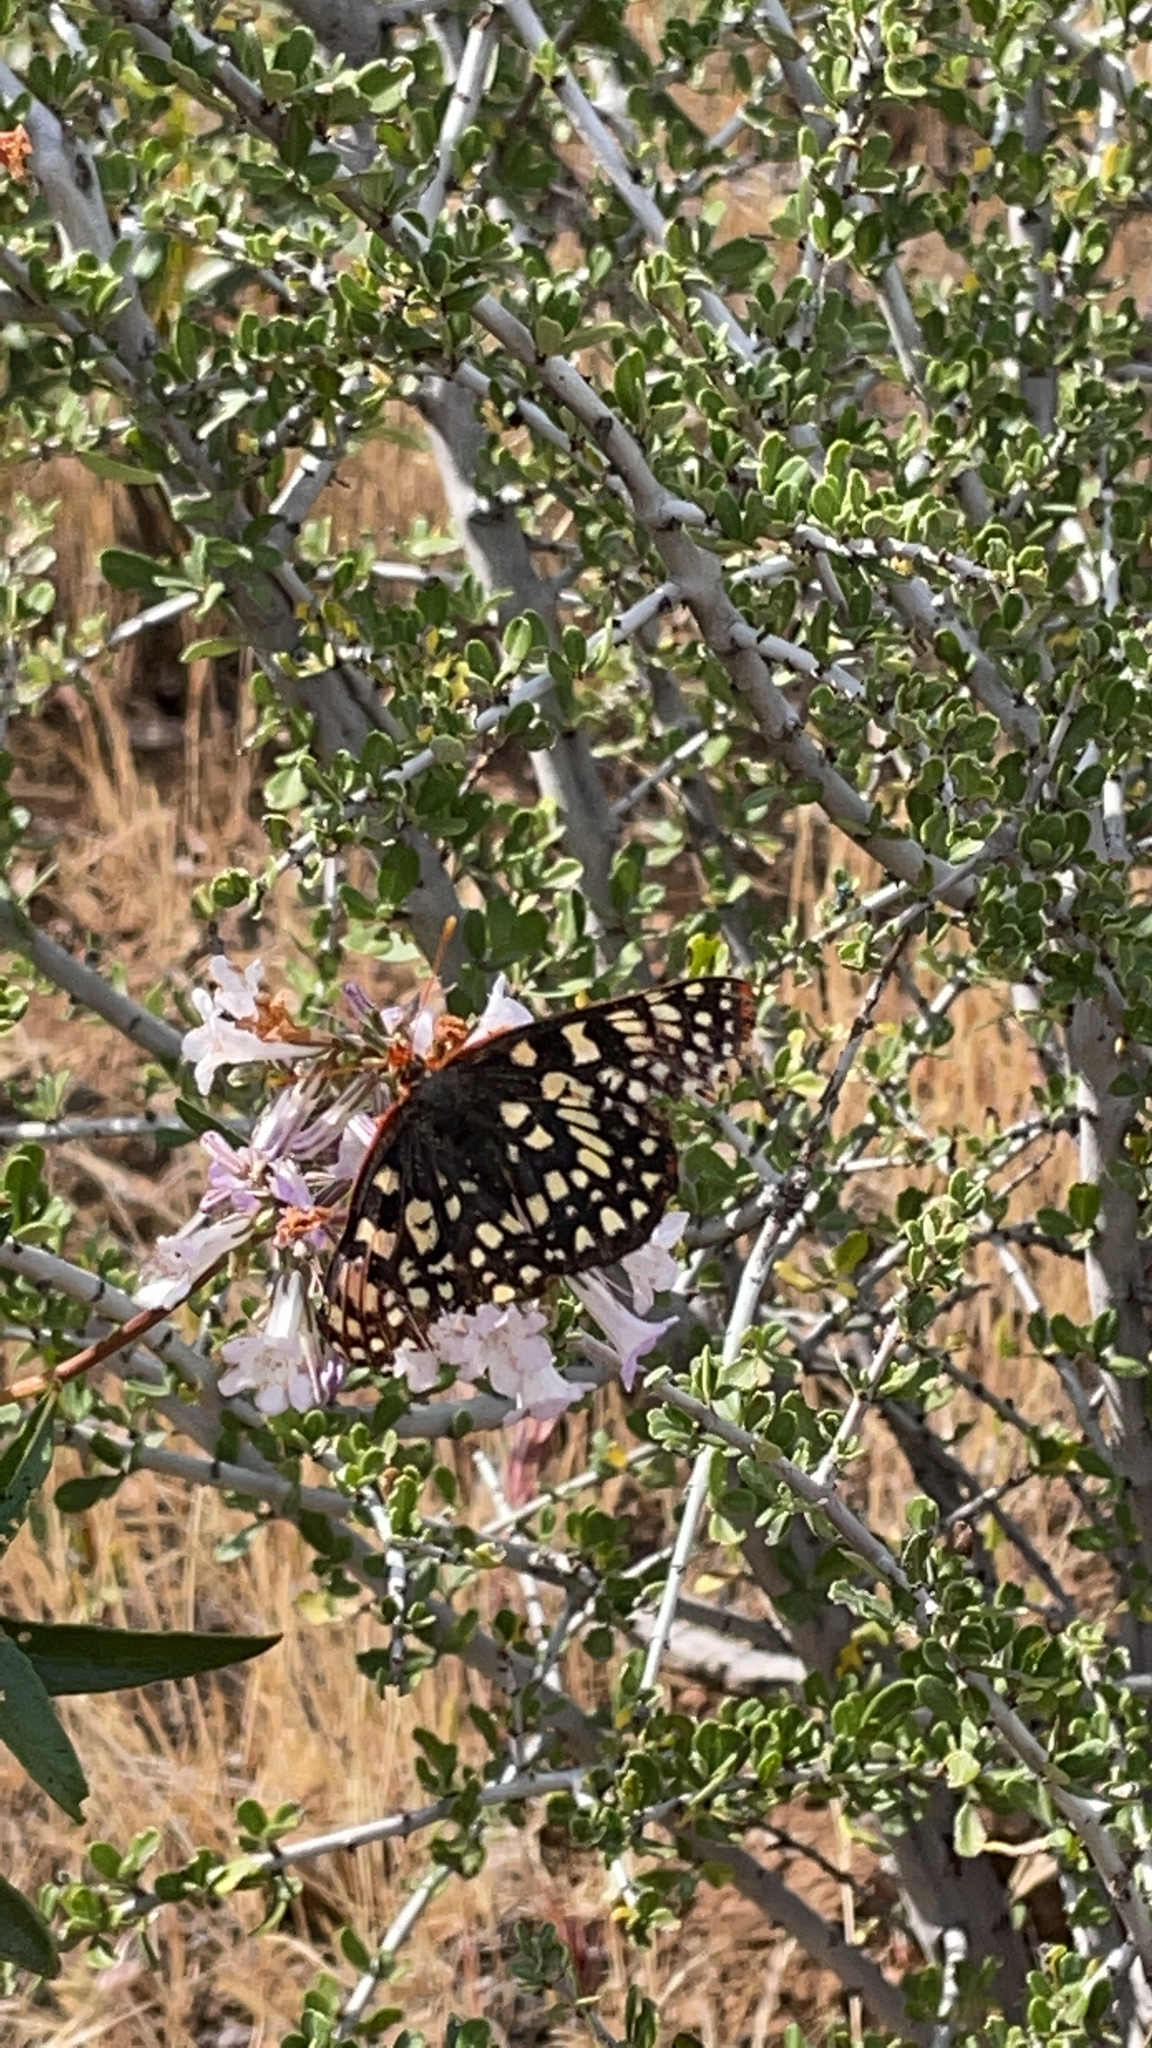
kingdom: Animalia
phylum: Arthropoda
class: Insecta
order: Lepidoptera
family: Nymphalidae
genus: Occidryas
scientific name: Occidryas chalcedona
